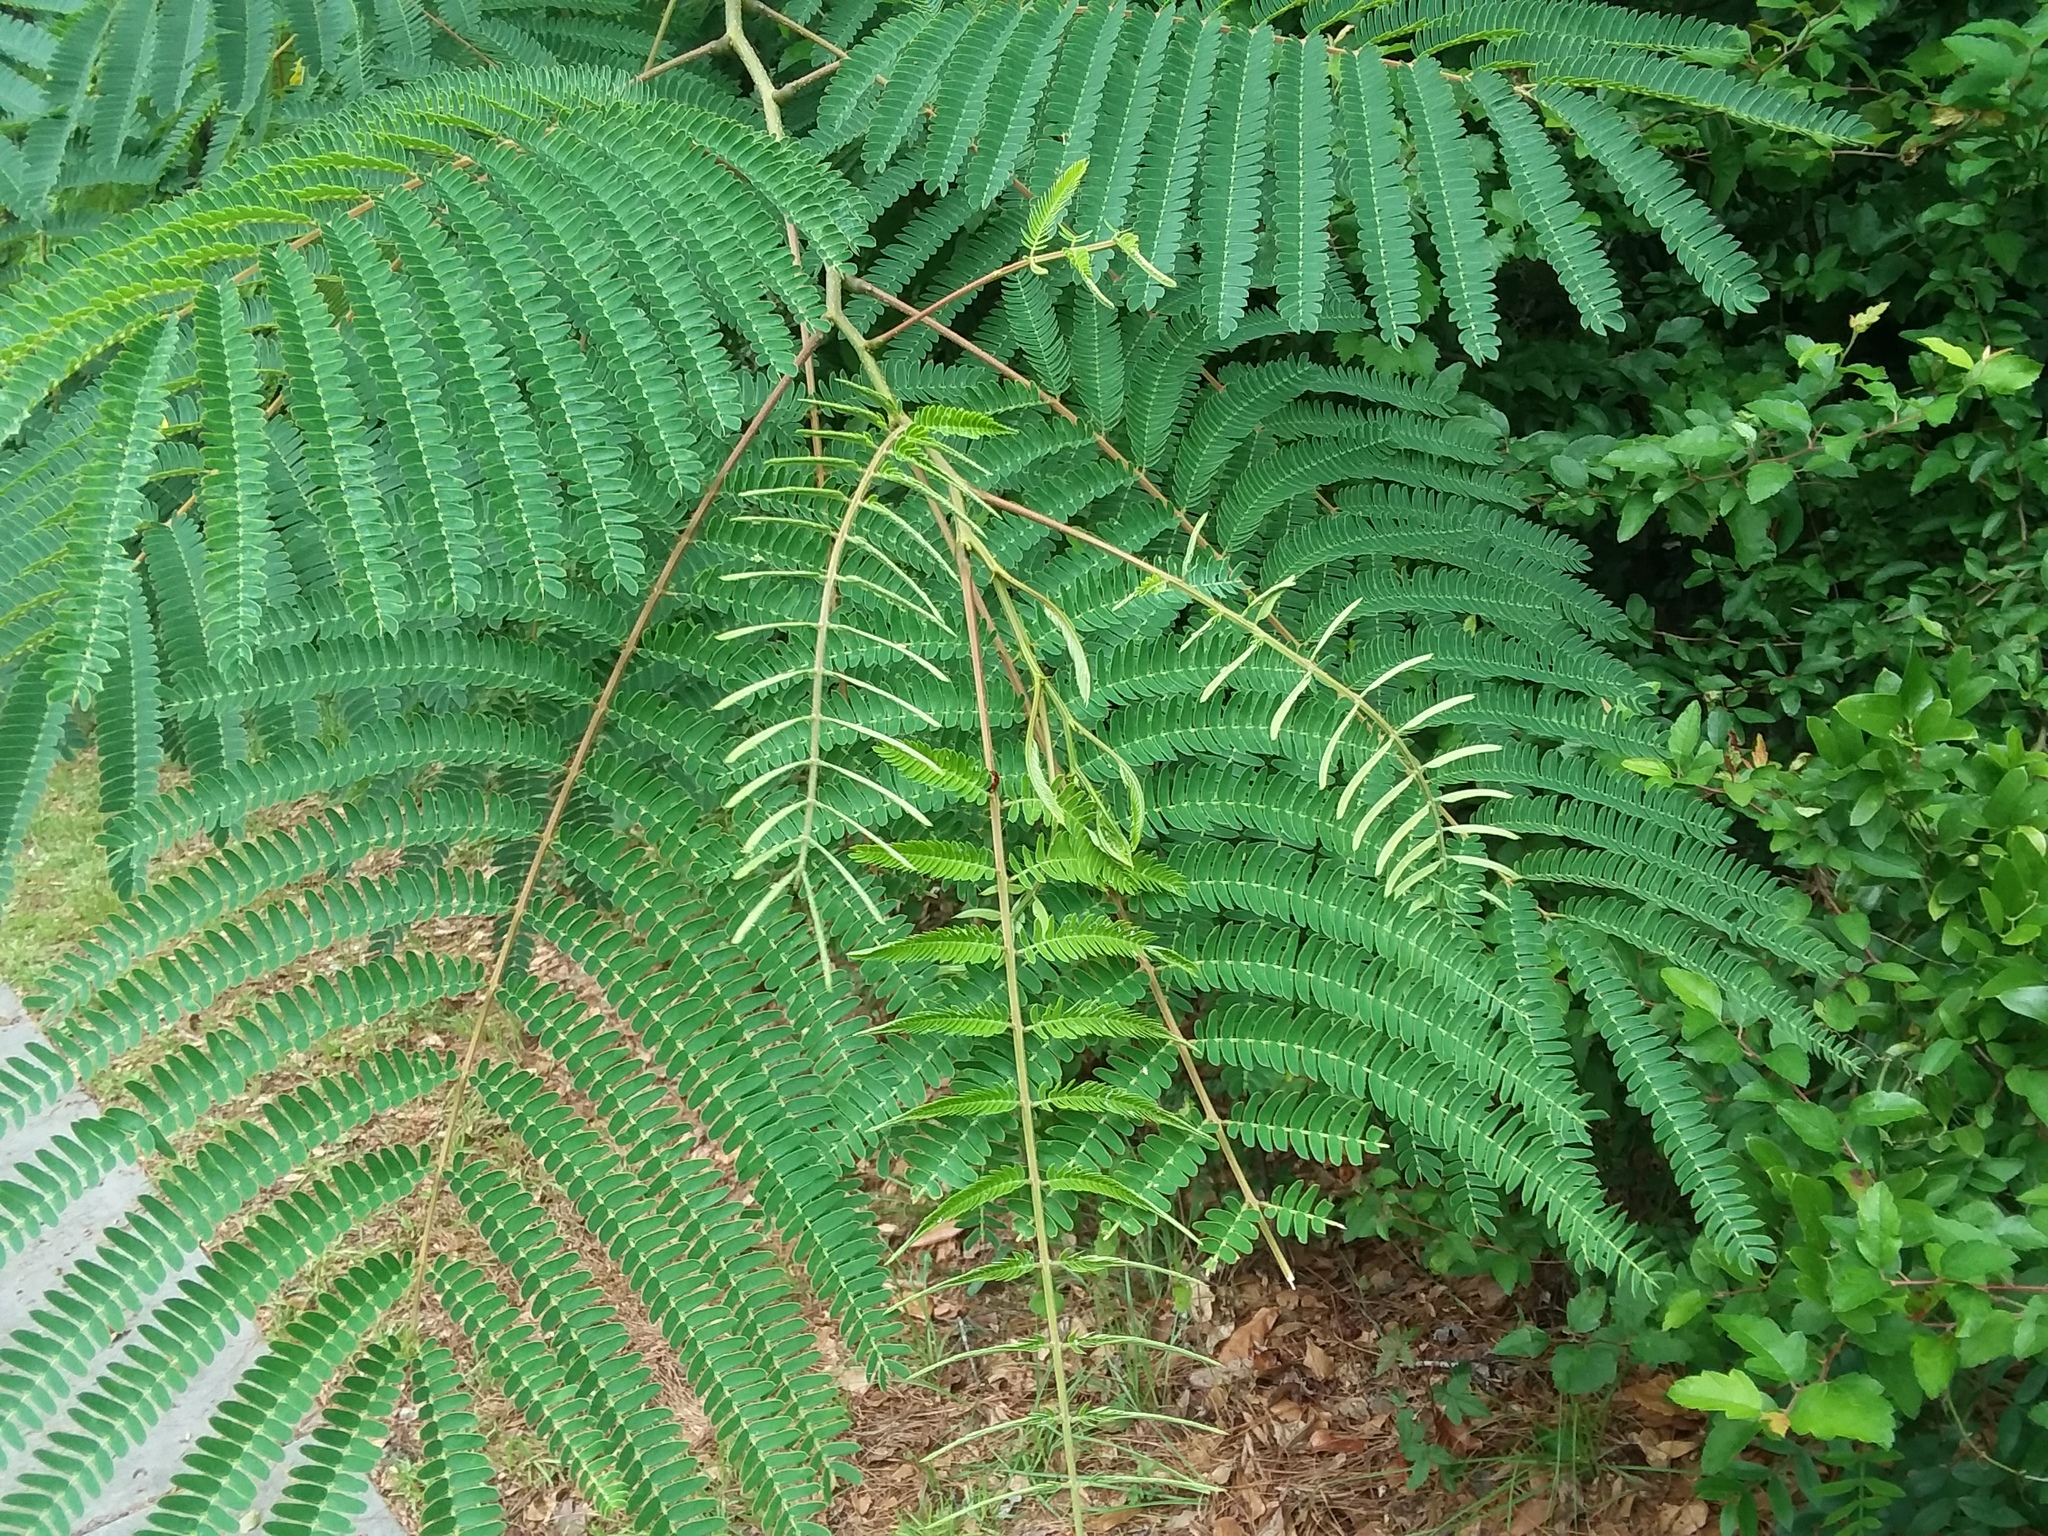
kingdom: Plantae
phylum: Tracheophyta
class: Magnoliopsida
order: Fabales
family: Fabaceae
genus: Albizia
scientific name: Albizia julibrissin
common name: Silktree
